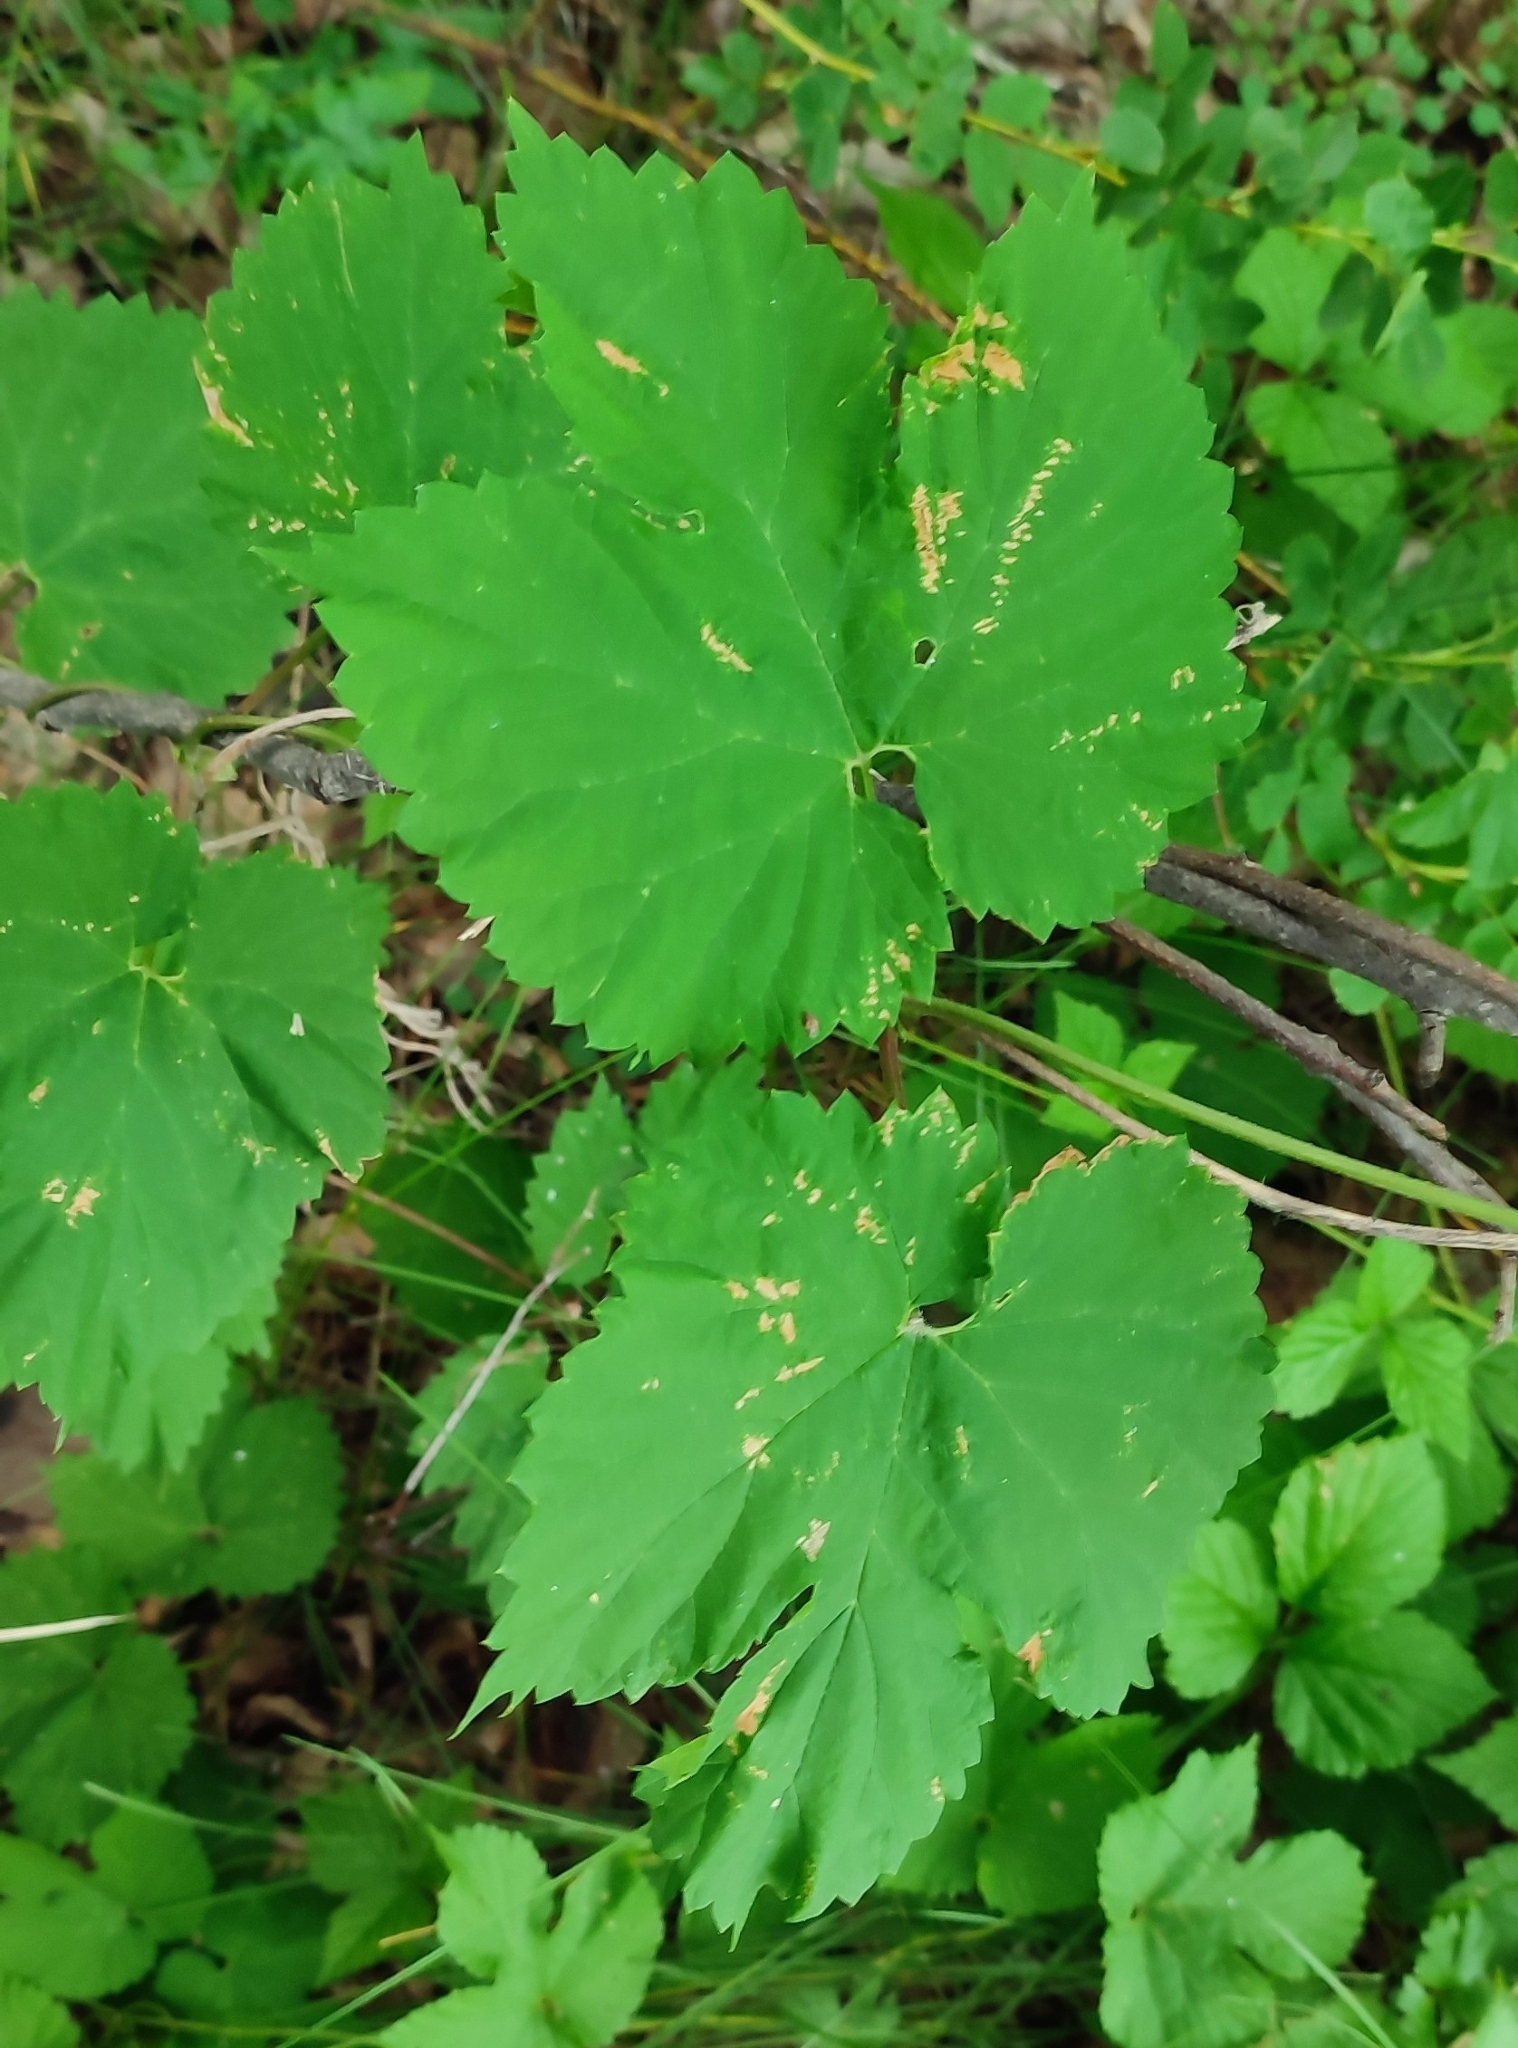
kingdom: Plantae
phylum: Tracheophyta
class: Magnoliopsida
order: Rosales
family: Cannabaceae
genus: Humulus
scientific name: Humulus lupulus
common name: Hop
